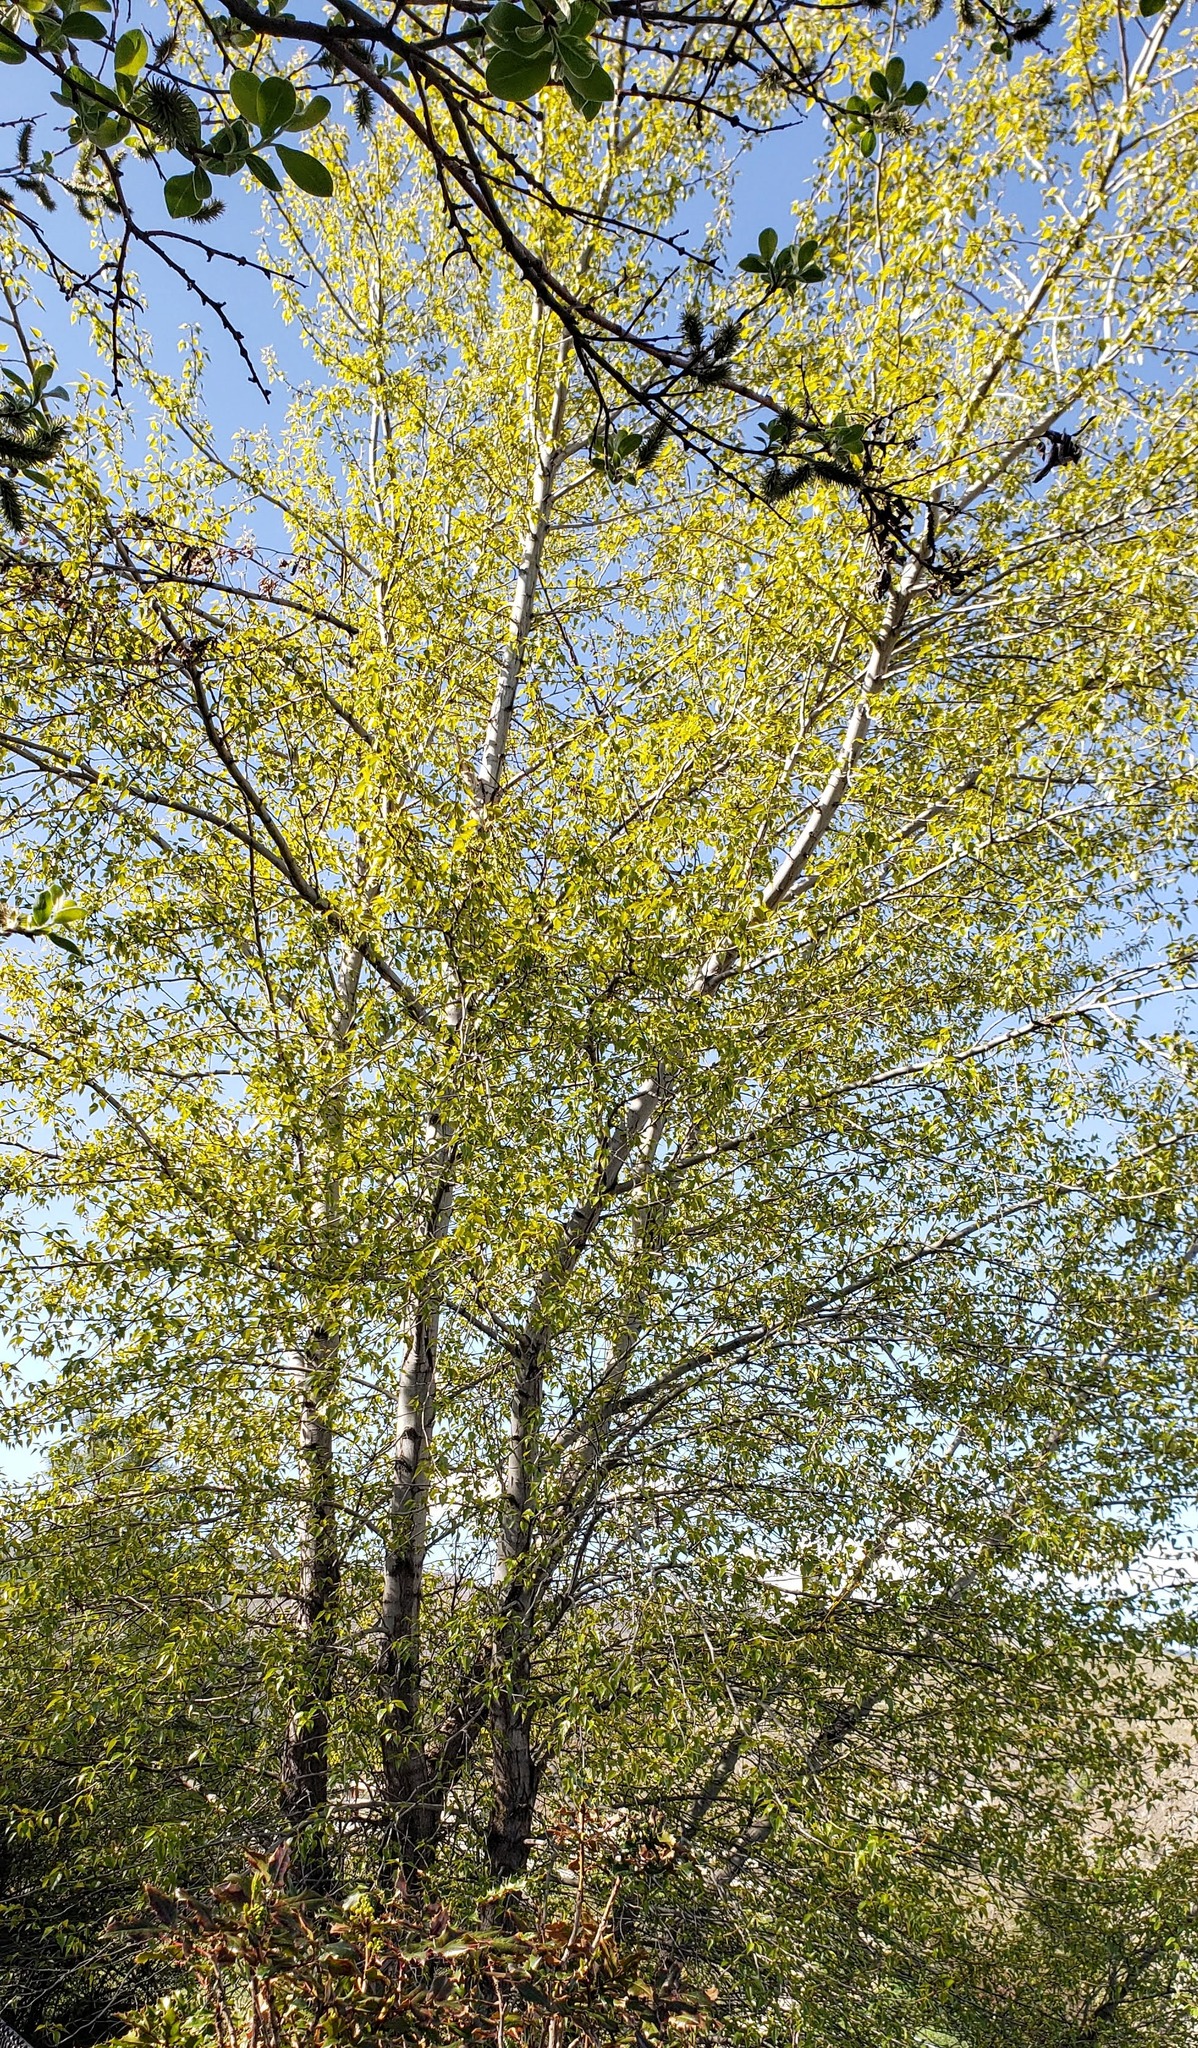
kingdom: Plantae
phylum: Tracheophyta
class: Magnoliopsida
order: Malpighiales
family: Salicaceae
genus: Populus
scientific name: Populus trichocarpa
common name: Black cottonwood
